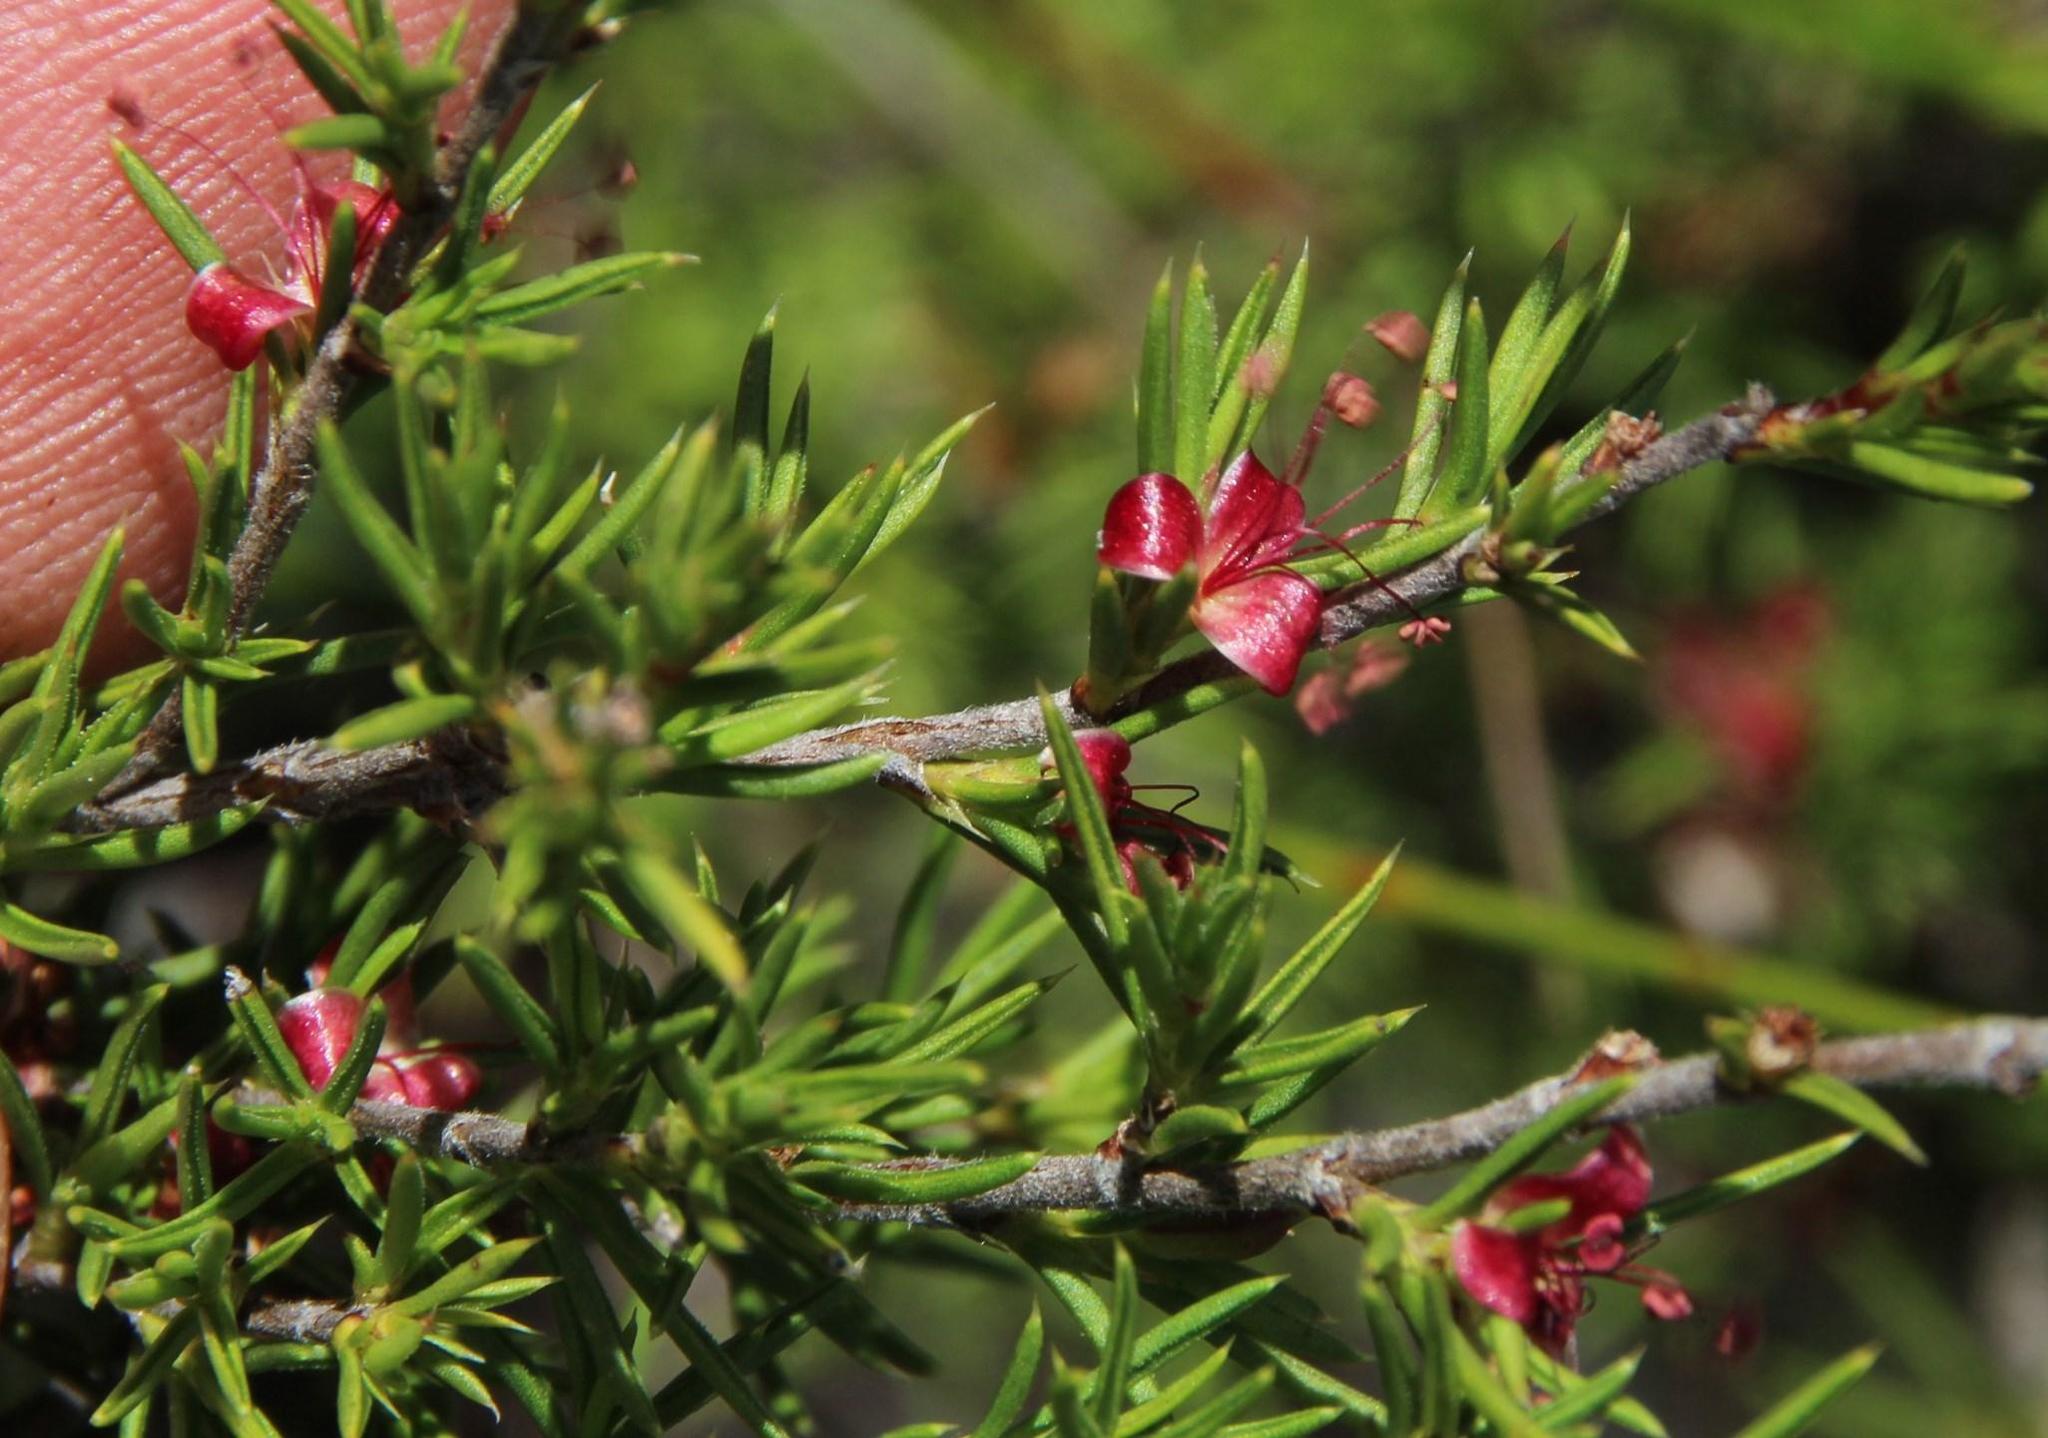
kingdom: Plantae
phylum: Tracheophyta
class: Magnoliopsida
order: Rosales
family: Rosaceae
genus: Cliffortia
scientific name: Cliffortia neglecta
